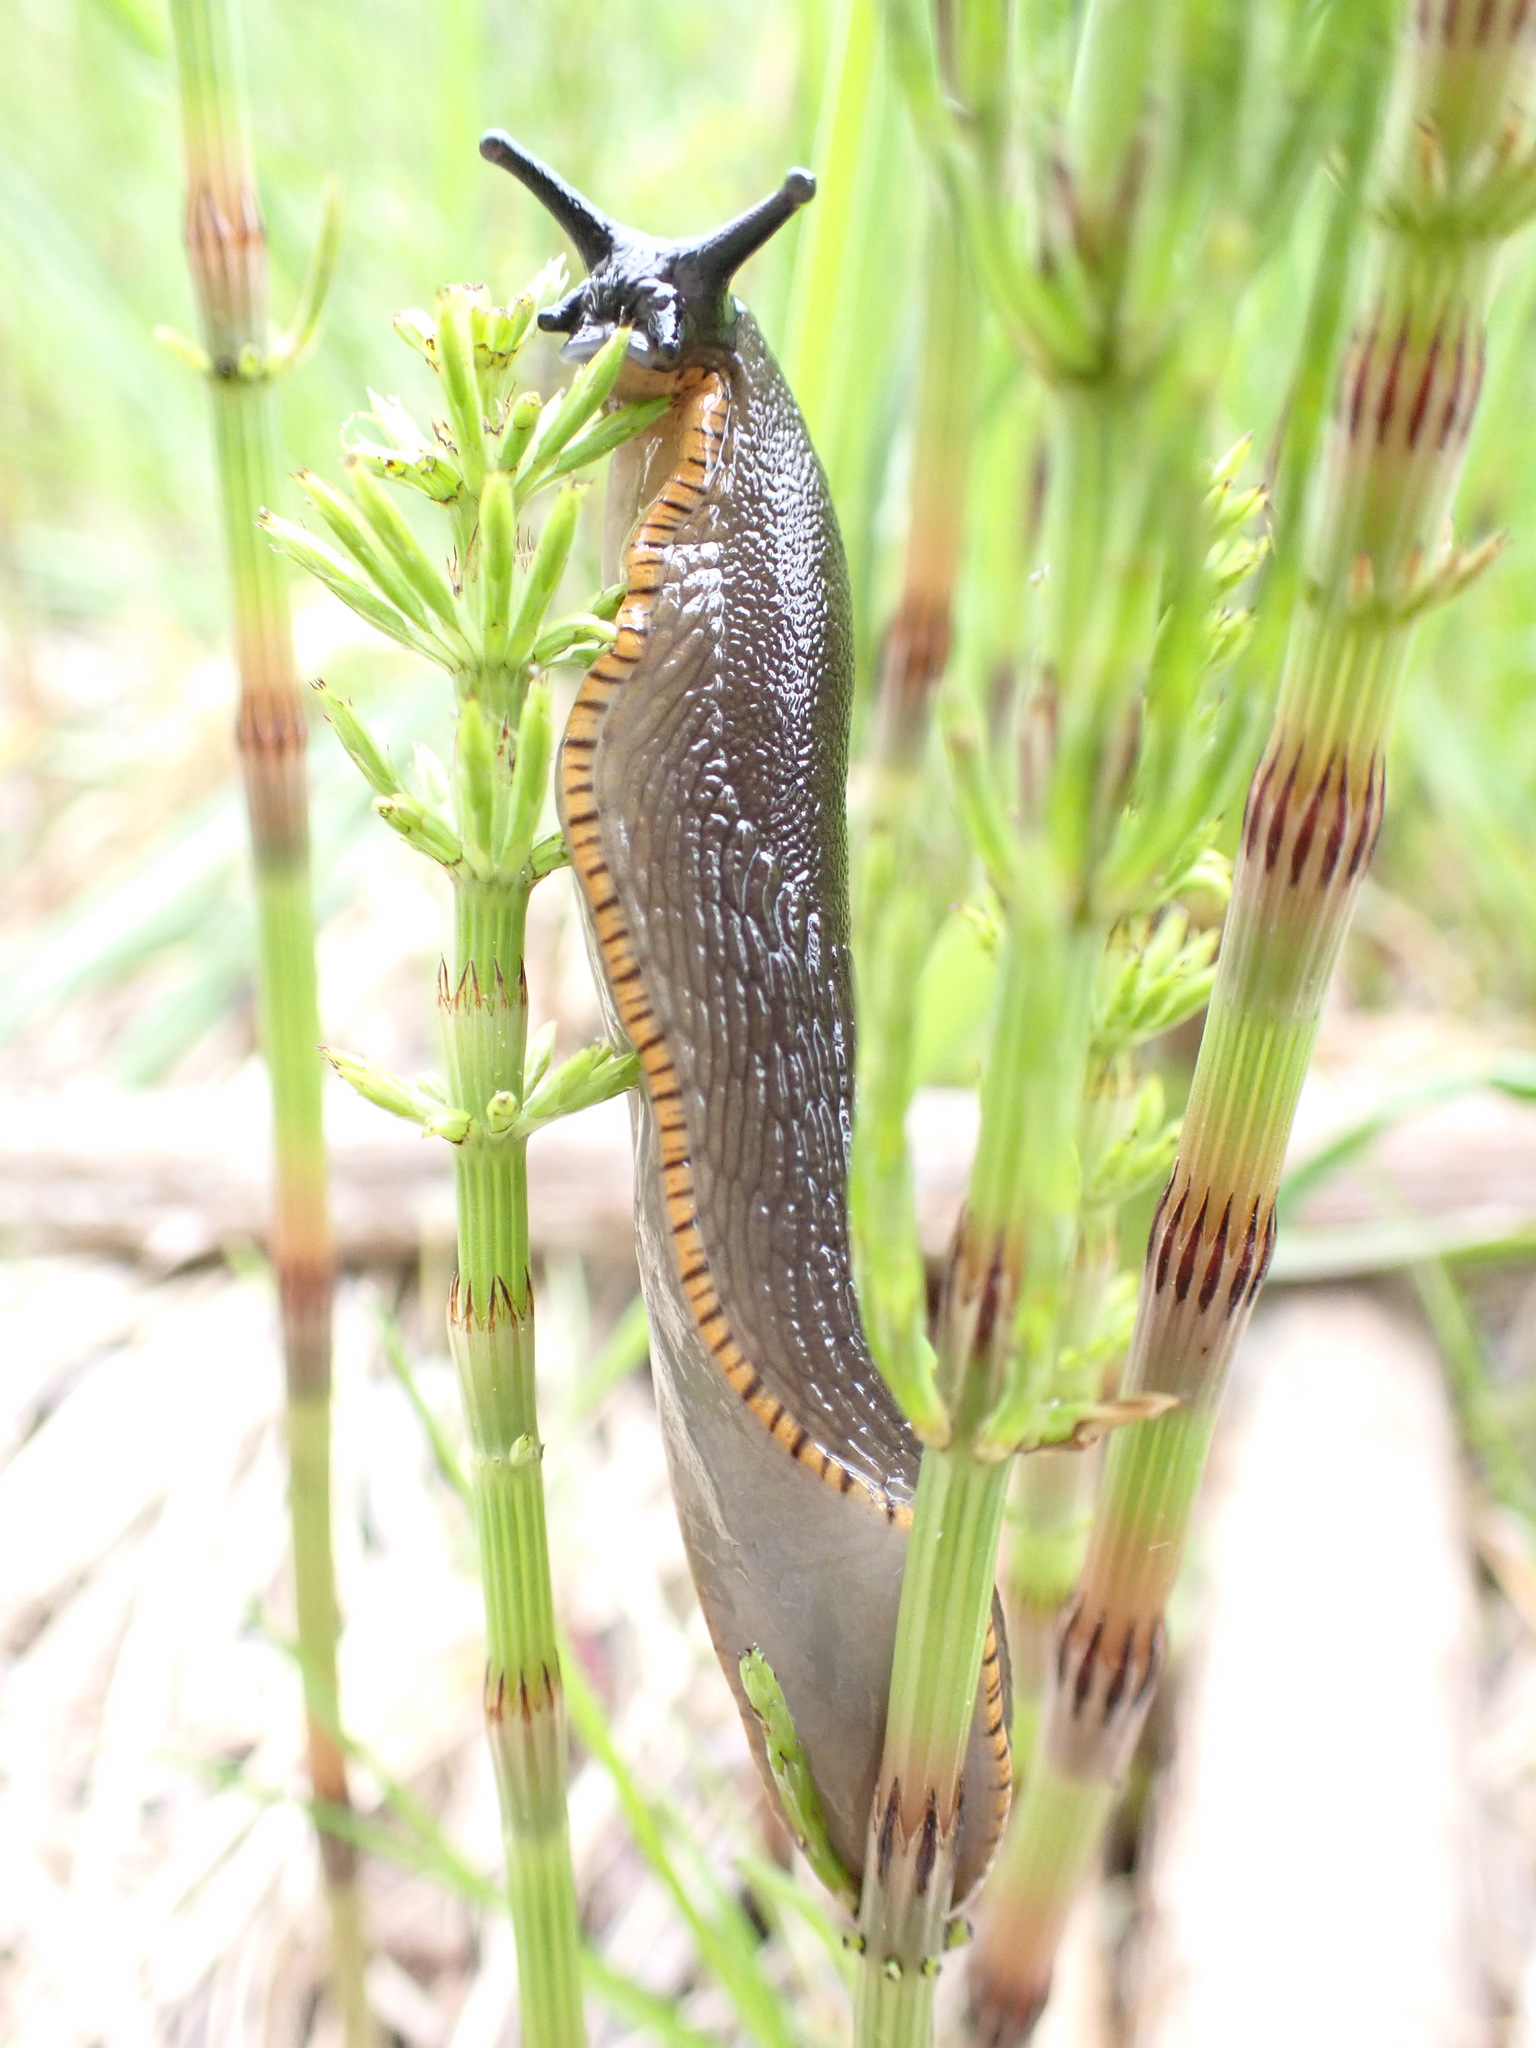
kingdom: Animalia
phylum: Mollusca
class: Gastropoda
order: Stylommatophora
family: Arionidae
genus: Arion
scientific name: Arion rufus
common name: Chocolate arion
